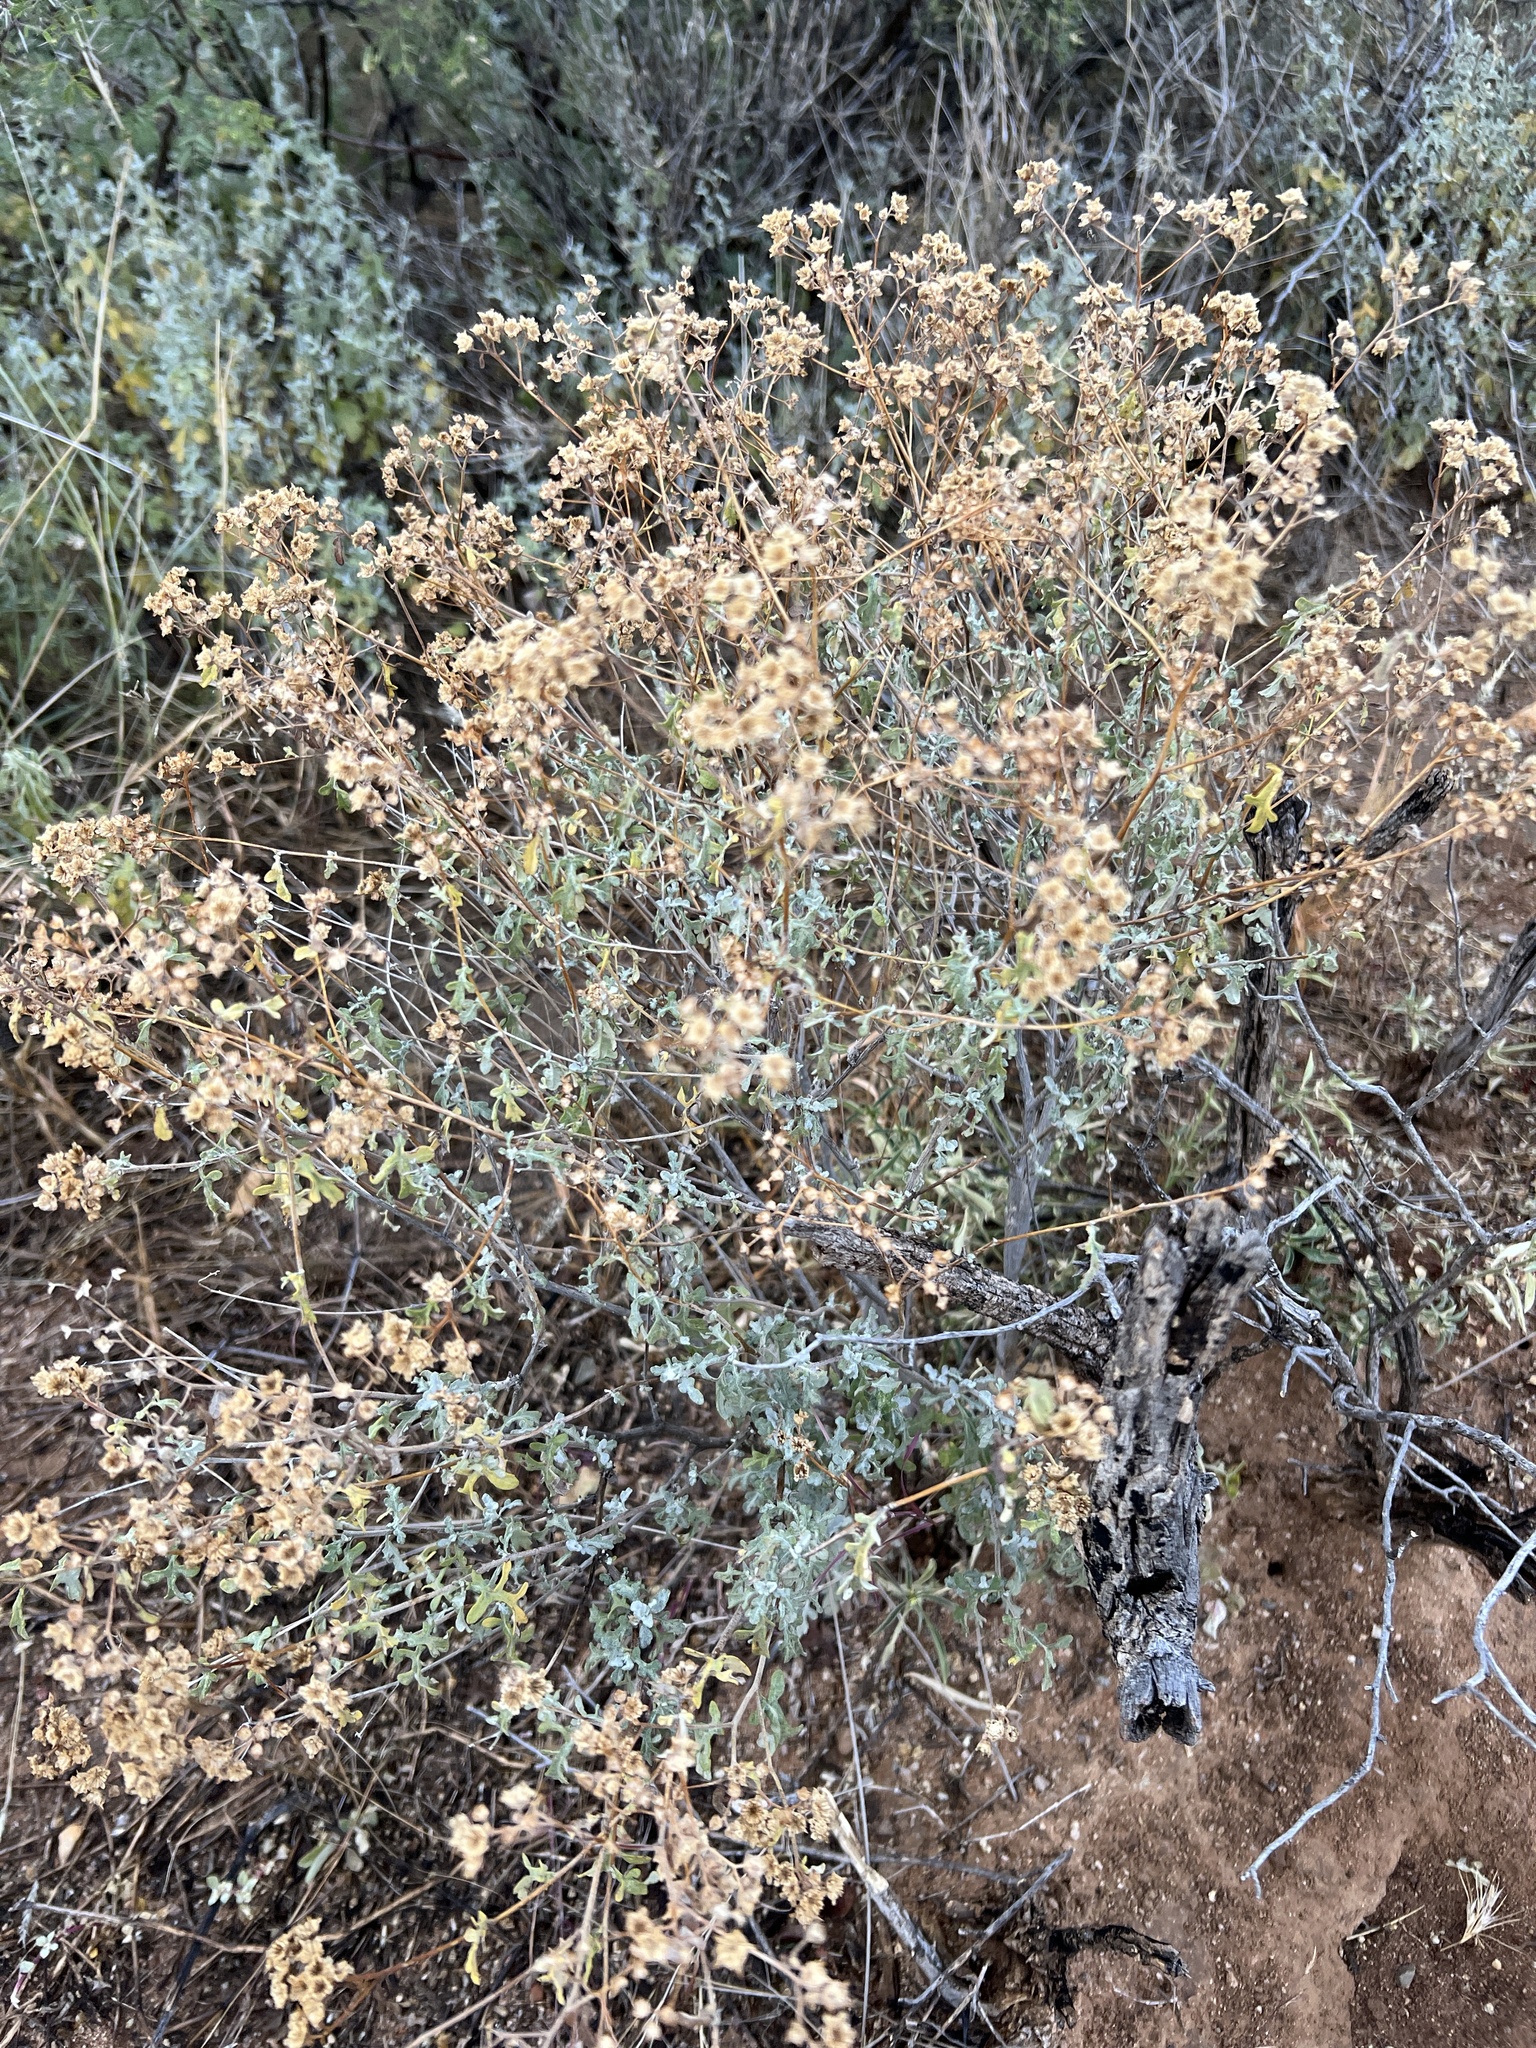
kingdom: Plantae
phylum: Tracheophyta
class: Magnoliopsida
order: Asterales
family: Asteraceae
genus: Parthenium
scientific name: Parthenium incanum
